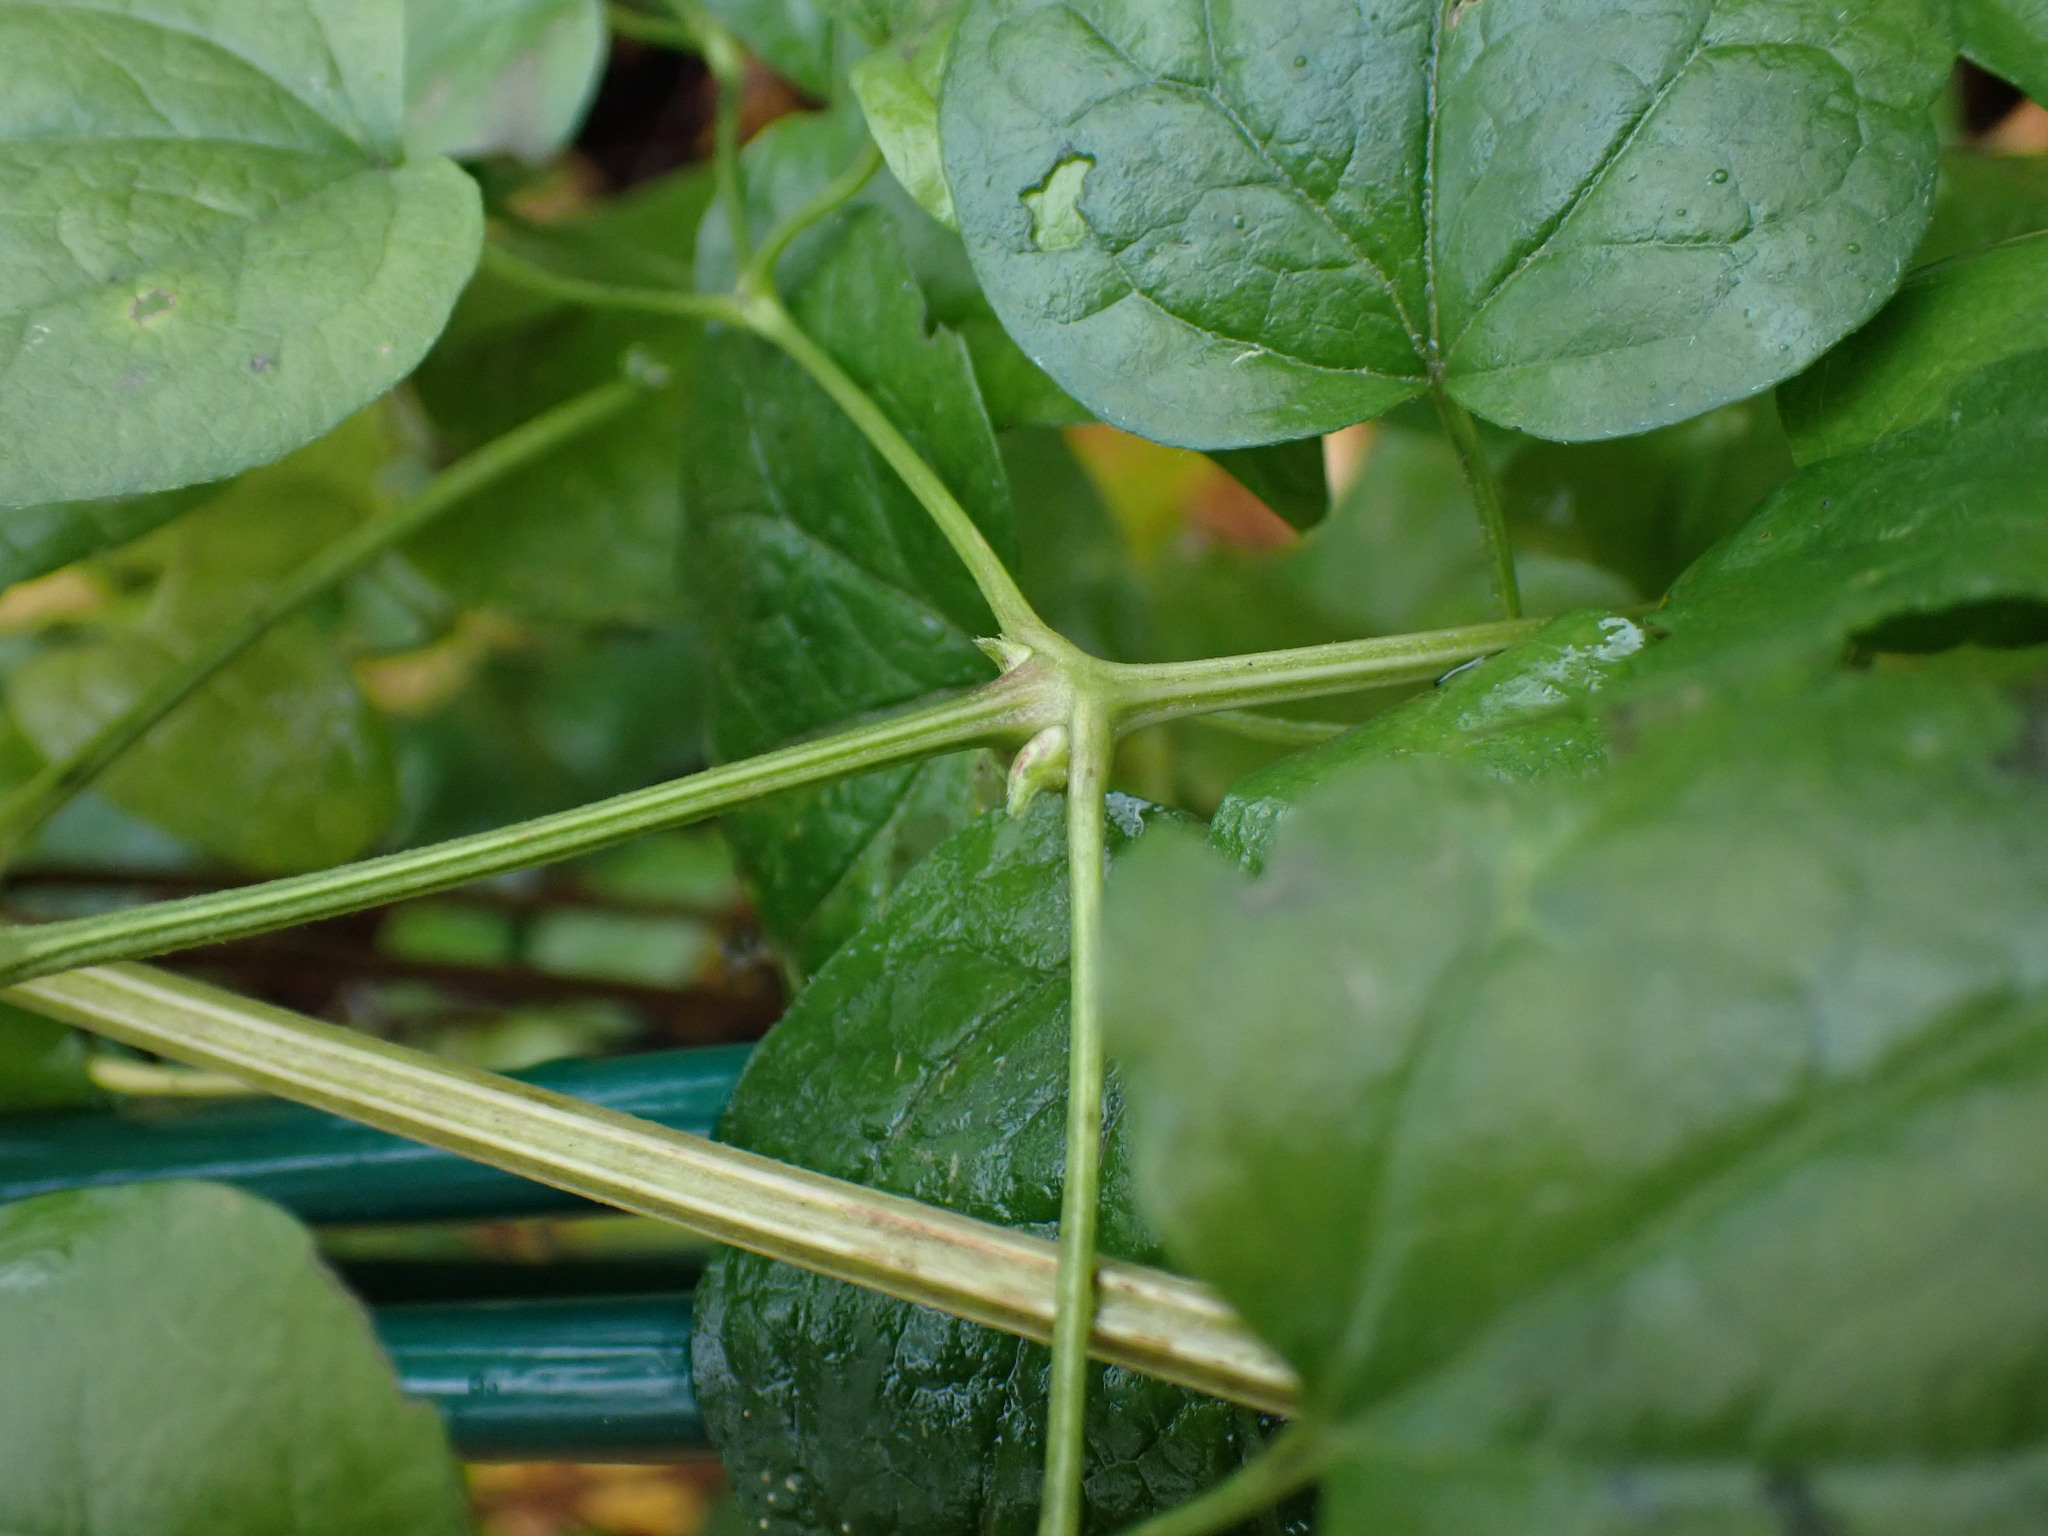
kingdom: Plantae
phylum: Tracheophyta
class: Magnoliopsida
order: Ranunculales
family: Ranunculaceae
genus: Clematis
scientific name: Clematis vitalba
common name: Evergreen clematis
